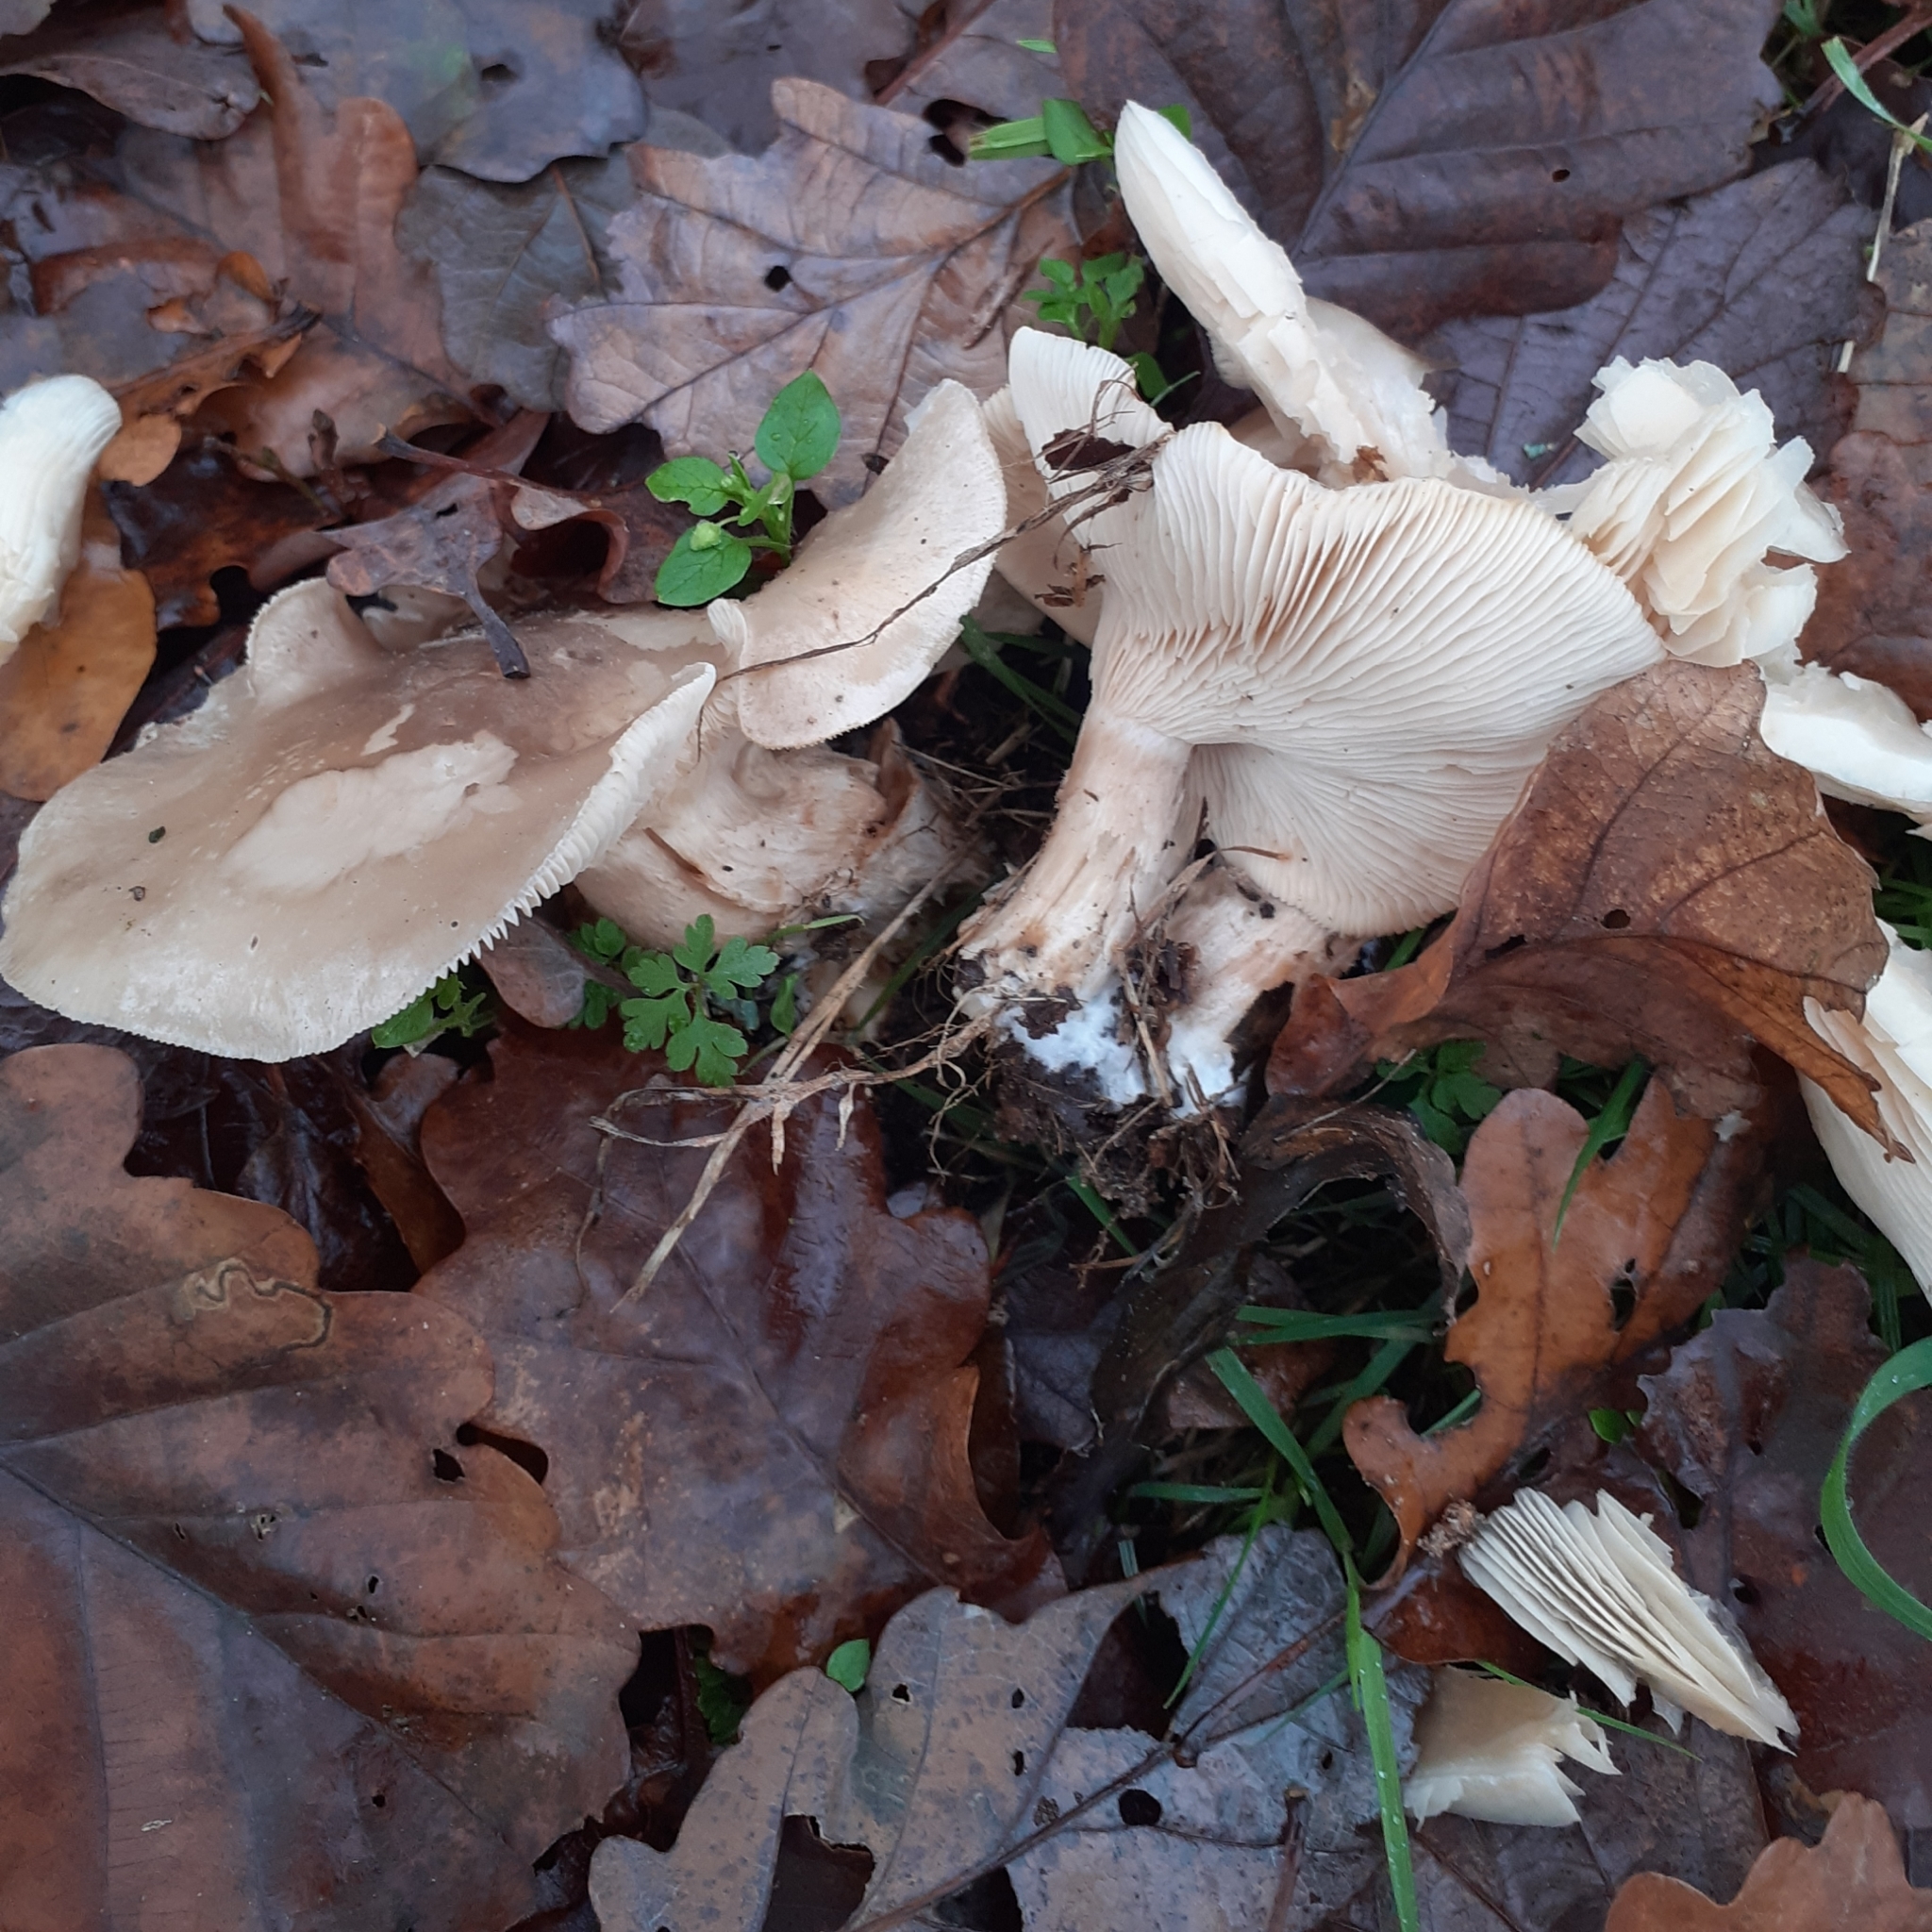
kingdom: Fungi
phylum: Basidiomycota
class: Agaricomycetes
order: Agaricales
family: Tricholomataceae
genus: Clitocybe
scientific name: Clitocybe nebularis
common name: Clouded agaric
